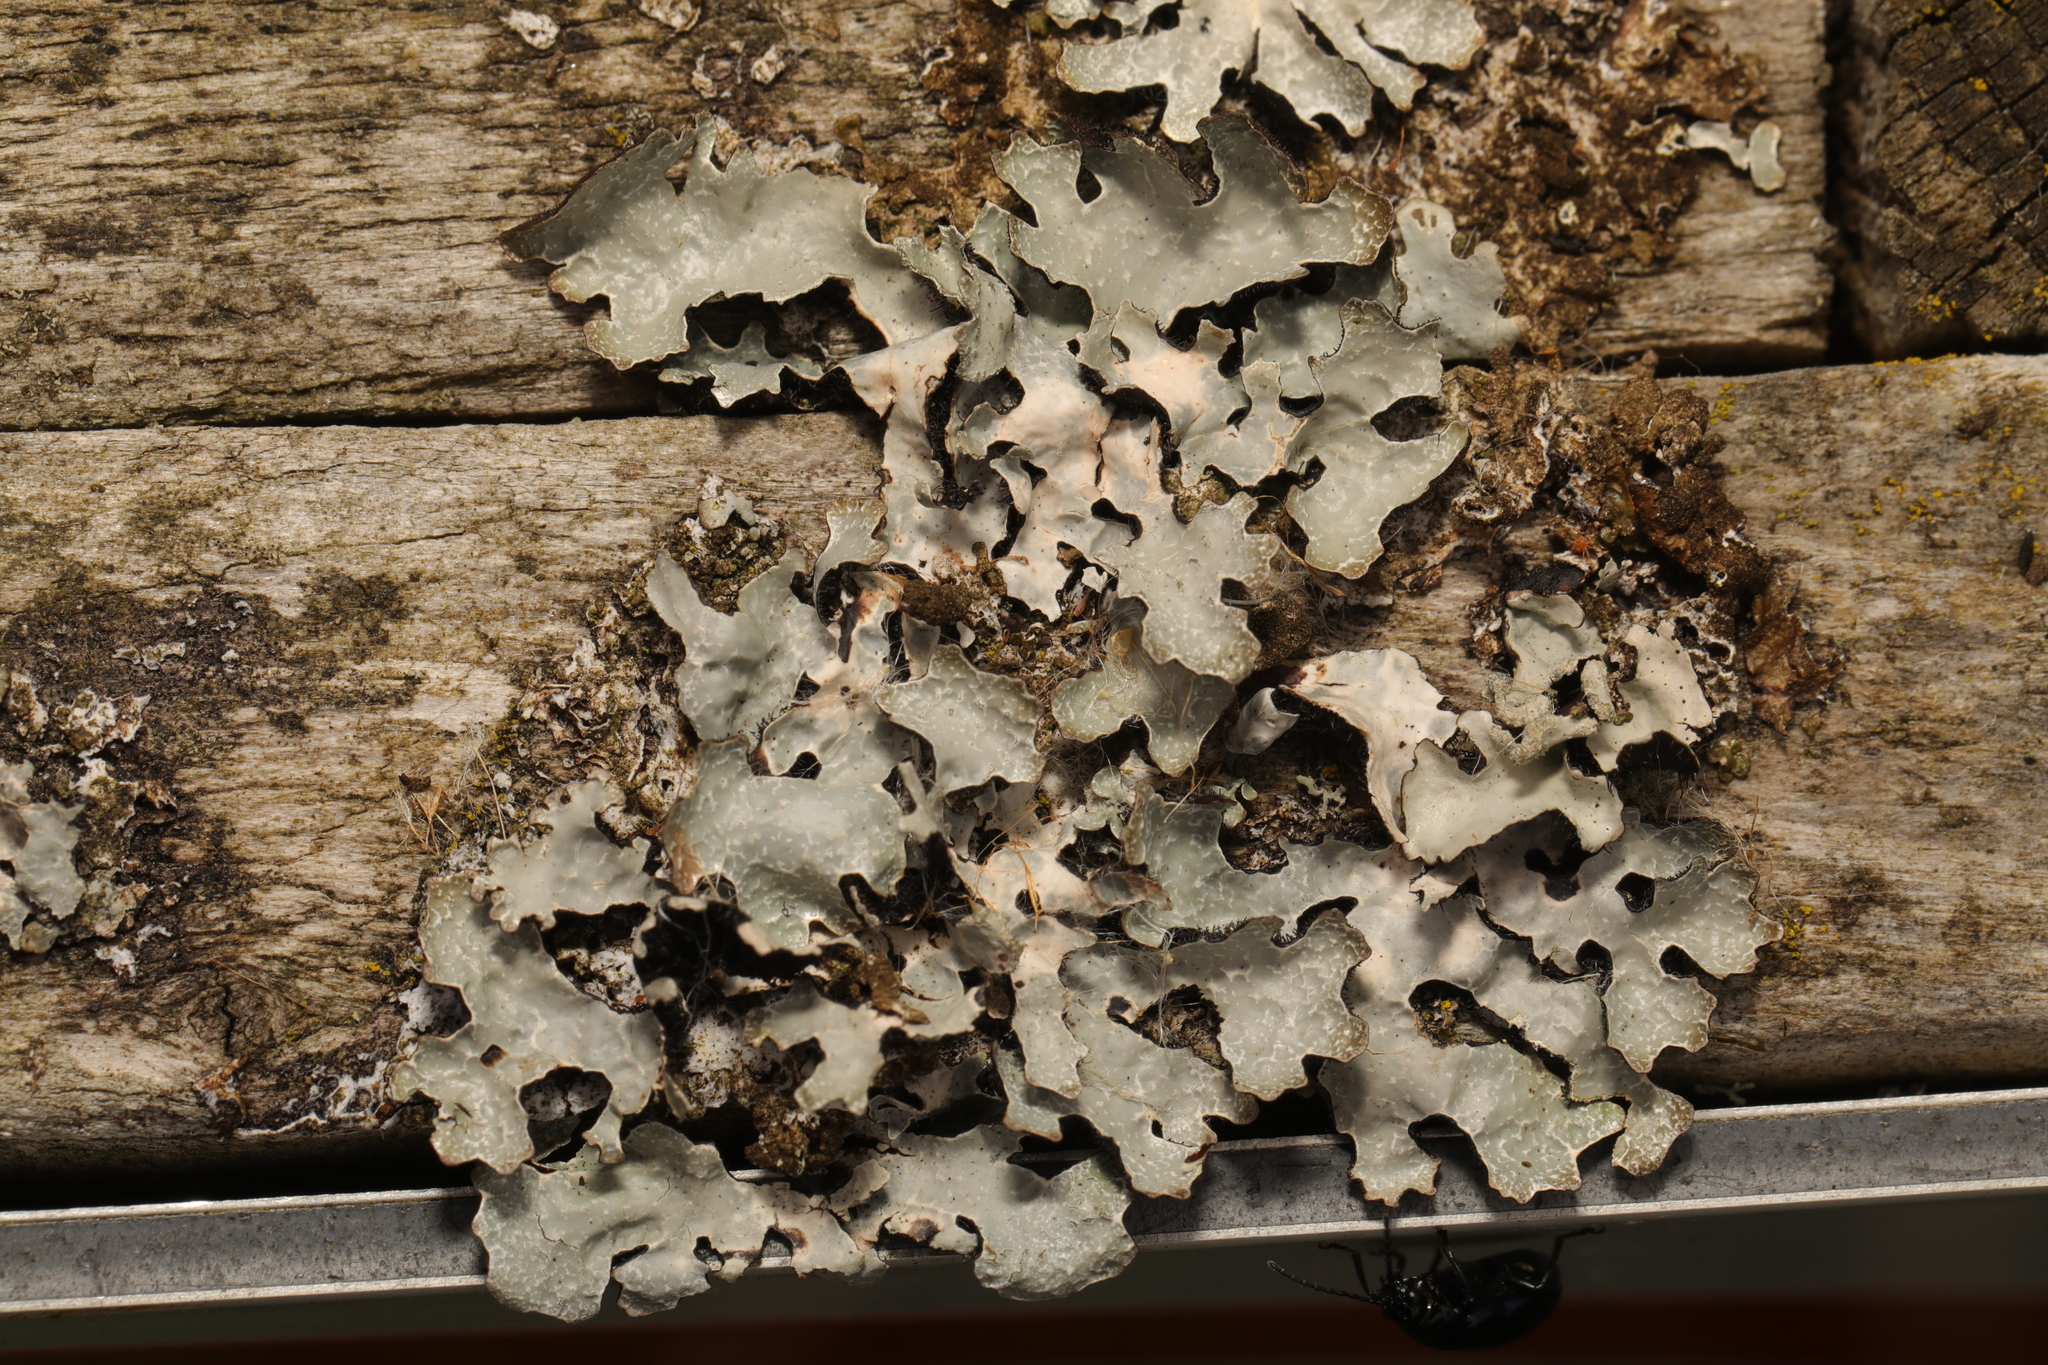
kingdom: Fungi
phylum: Ascomycota
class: Lecanoromycetes
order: Lecanorales
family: Parmeliaceae
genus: Parmelia
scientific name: Parmelia sulcata
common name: Netted shield lichen
